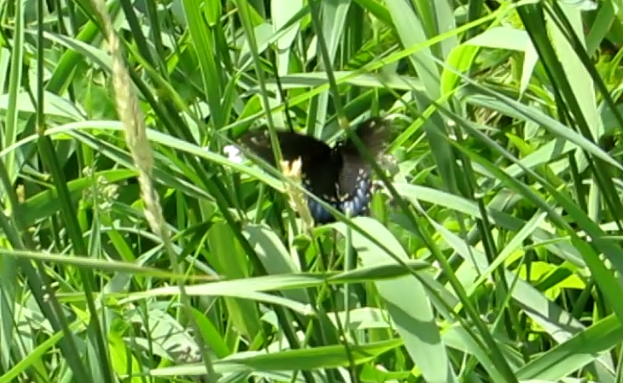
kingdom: Animalia
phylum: Arthropoda
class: Insecta
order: Lepidoptera
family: Papilionidae
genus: Papilio
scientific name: Papilio polyxenes
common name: Black swallowtail
